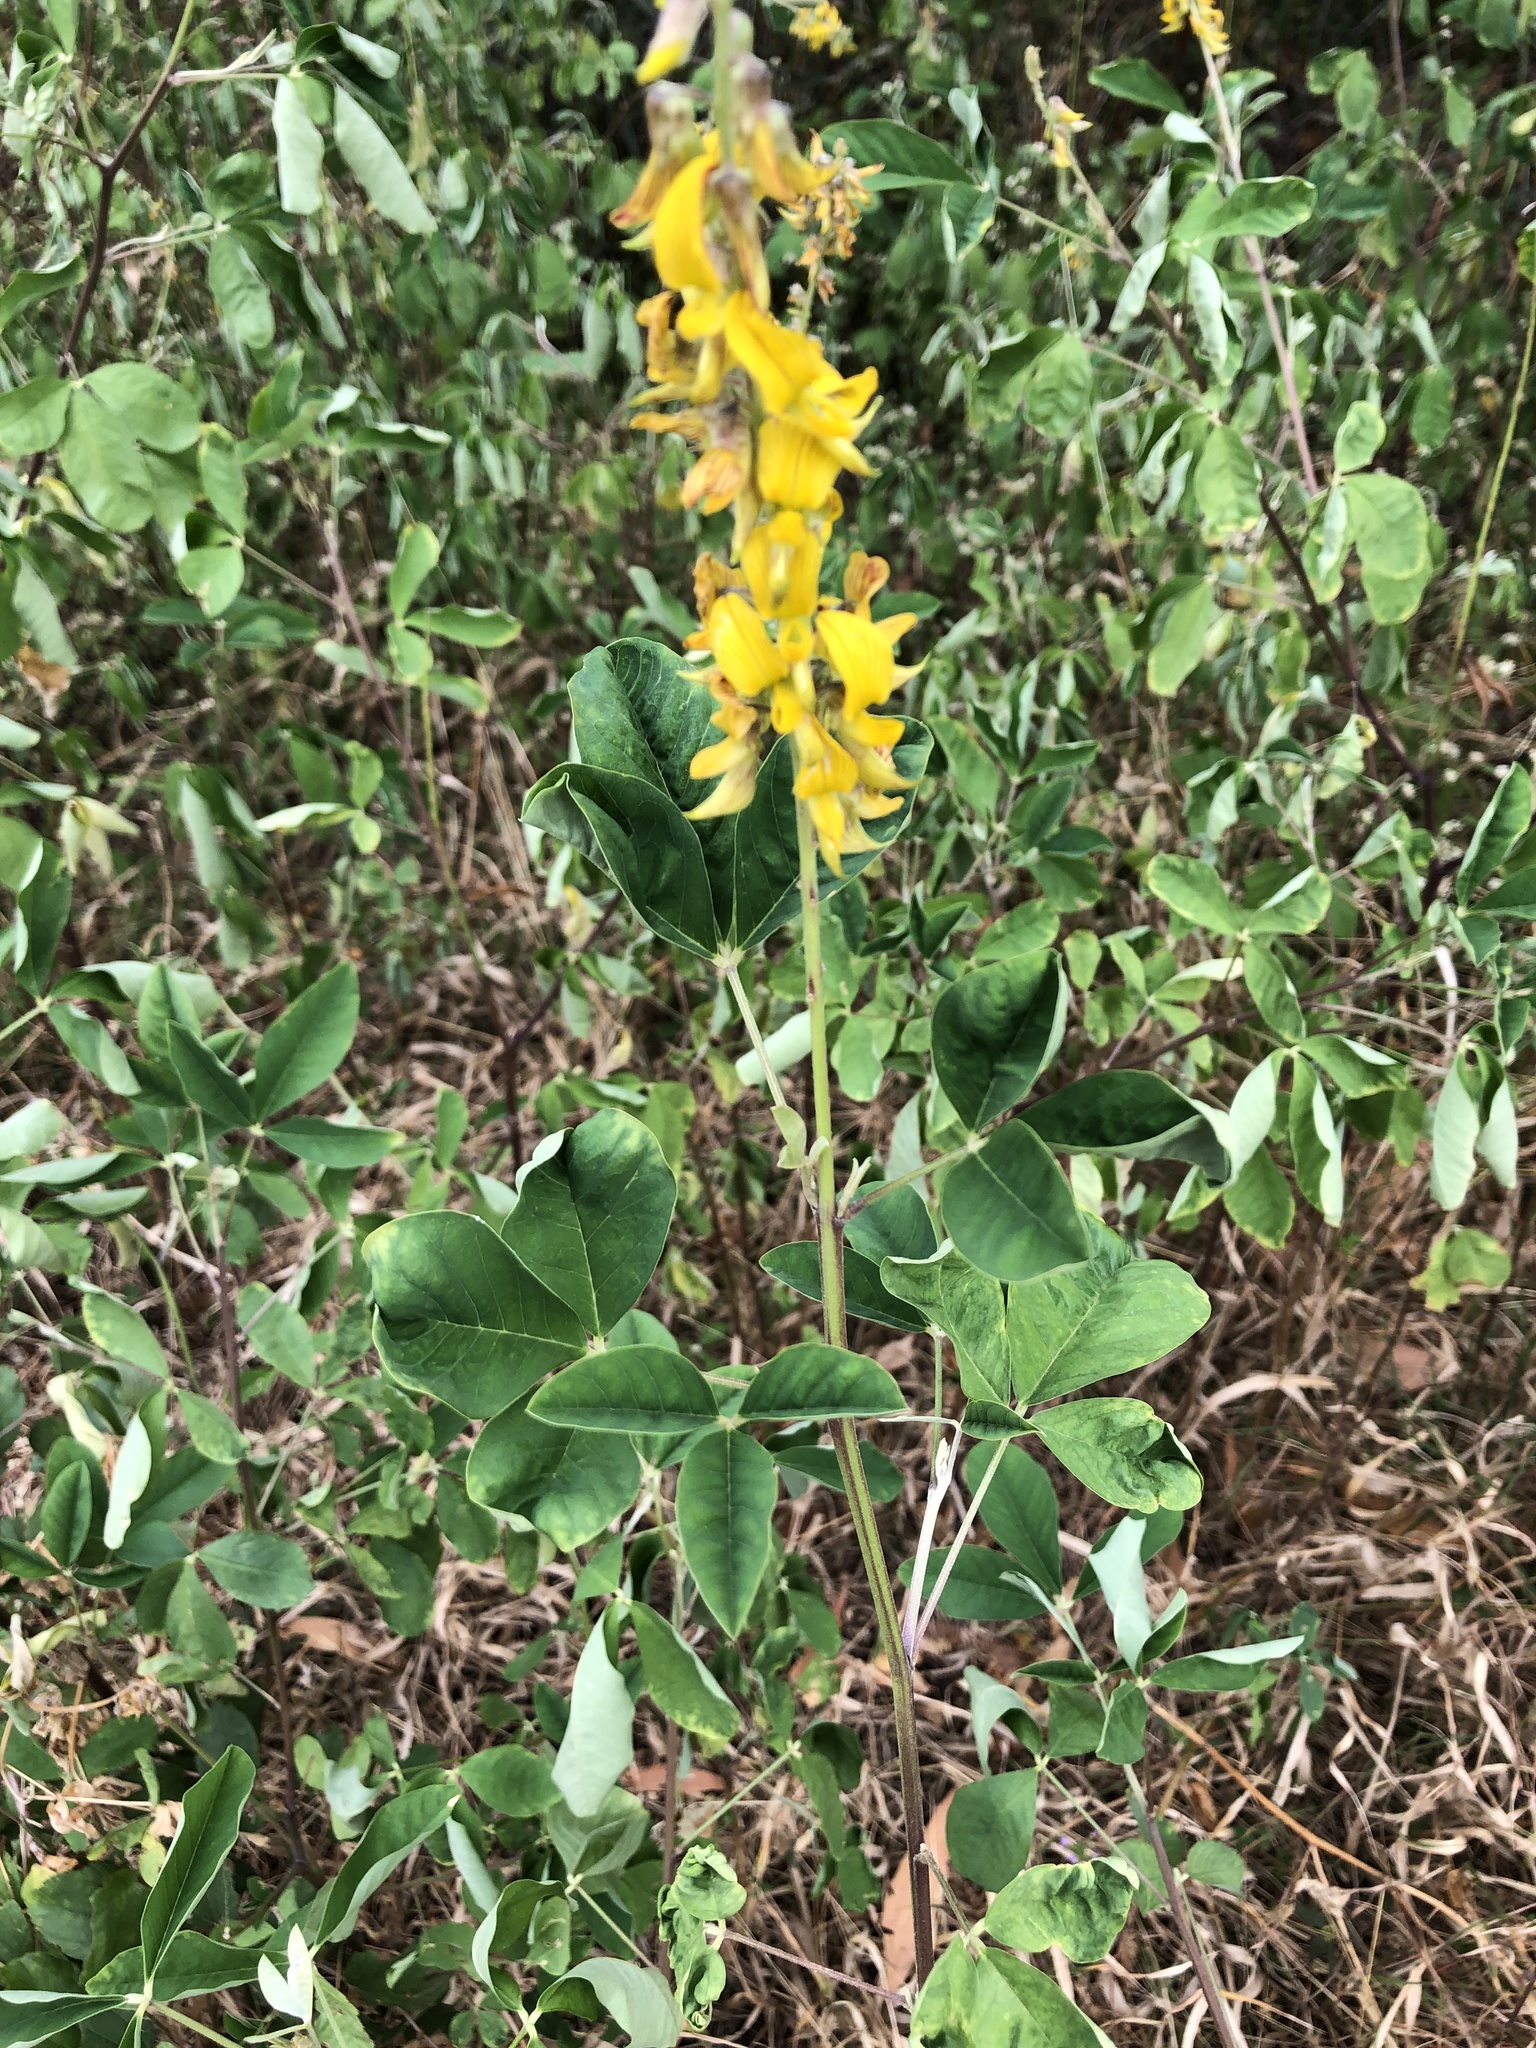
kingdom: Plantae
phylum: Tracheophyta
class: Magnoliopsida
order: Fabales
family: Fabaceae
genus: Crotalaria
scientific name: Crotalaria pallida
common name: Smooth rattlebox
